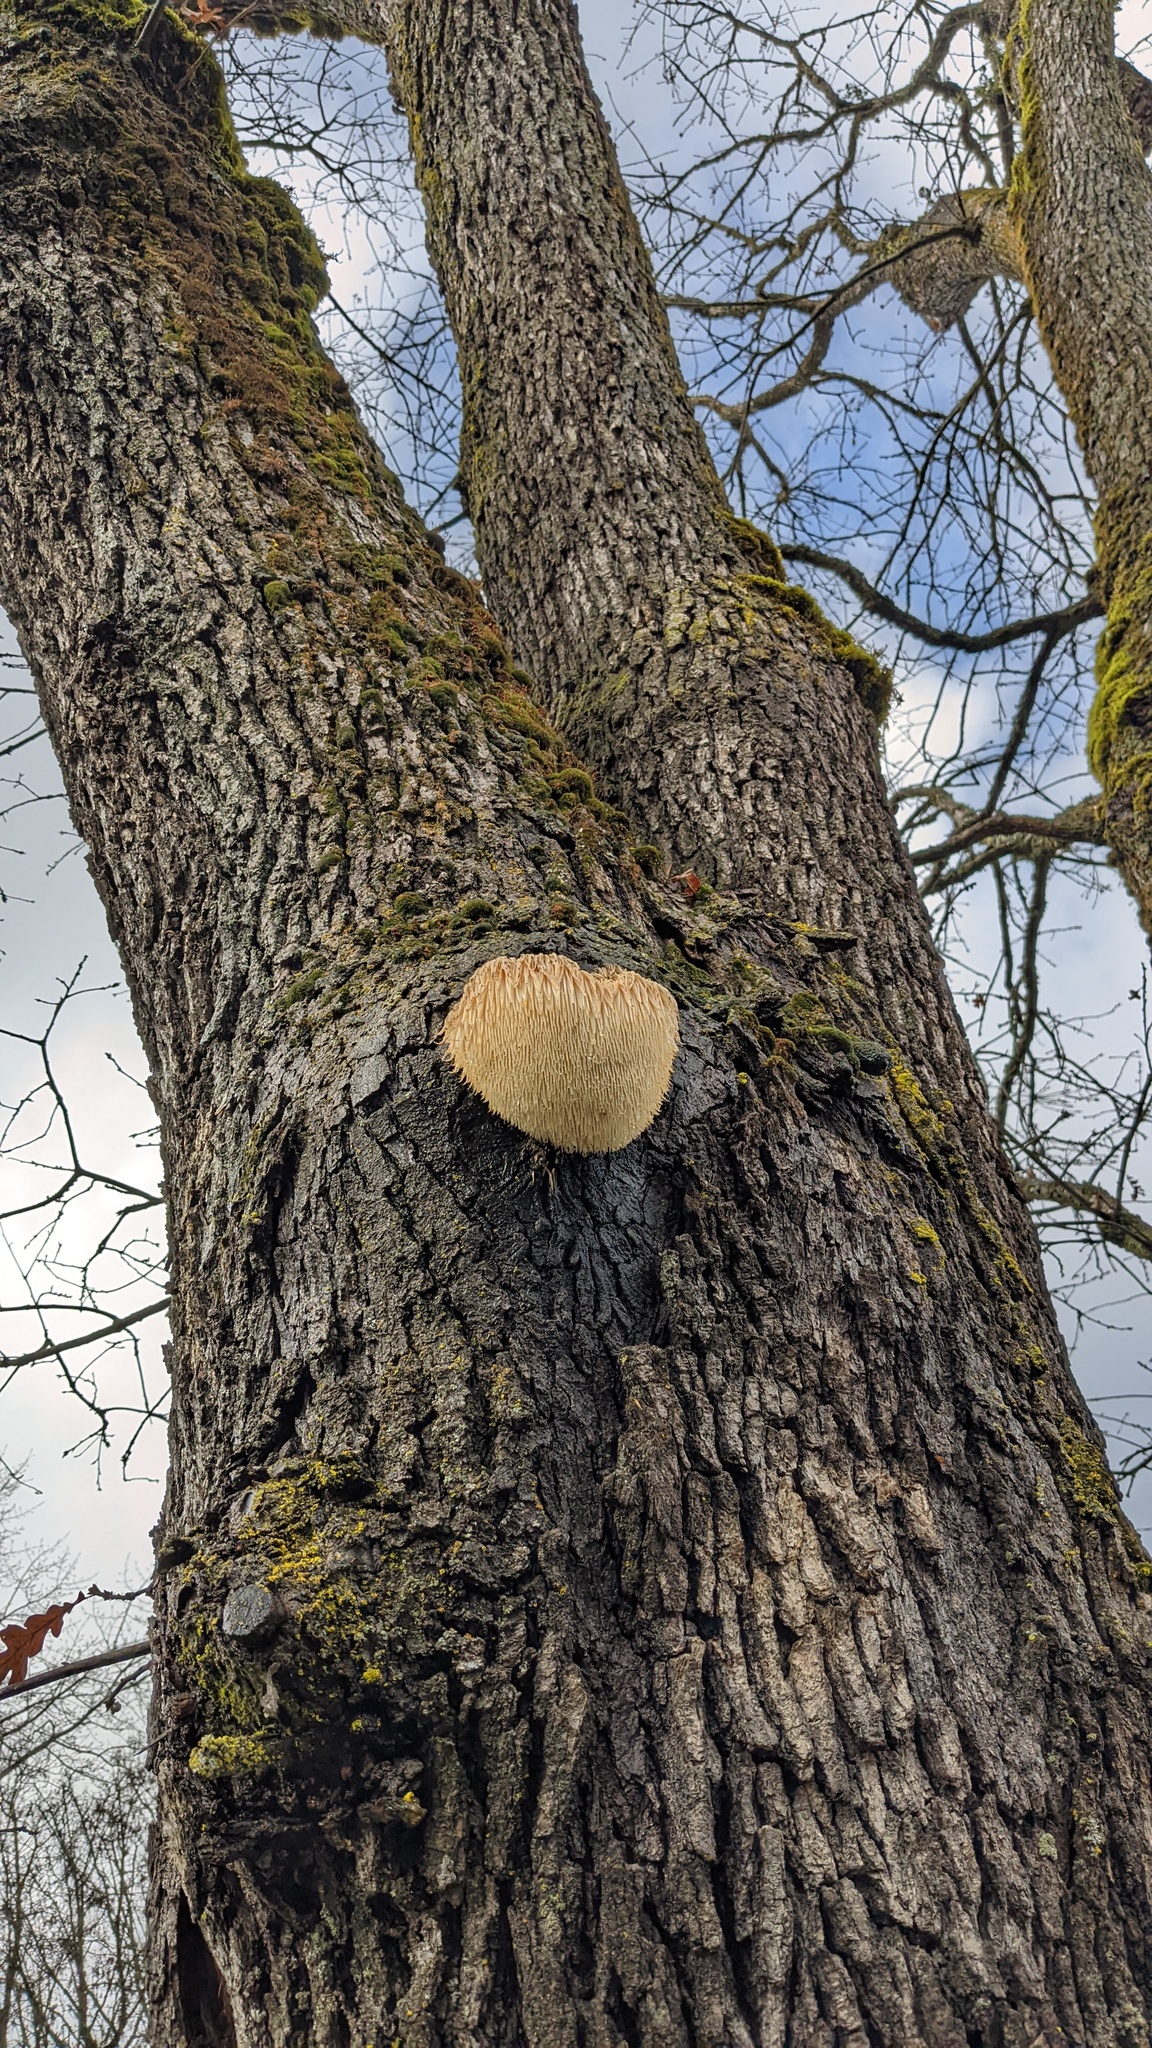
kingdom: Fungi
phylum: Basidiomycota
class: Agaricomycetes
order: Russulales
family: Hericiaceae
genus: Hericium
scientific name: Hericium erinaceus
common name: Bearded tooth
